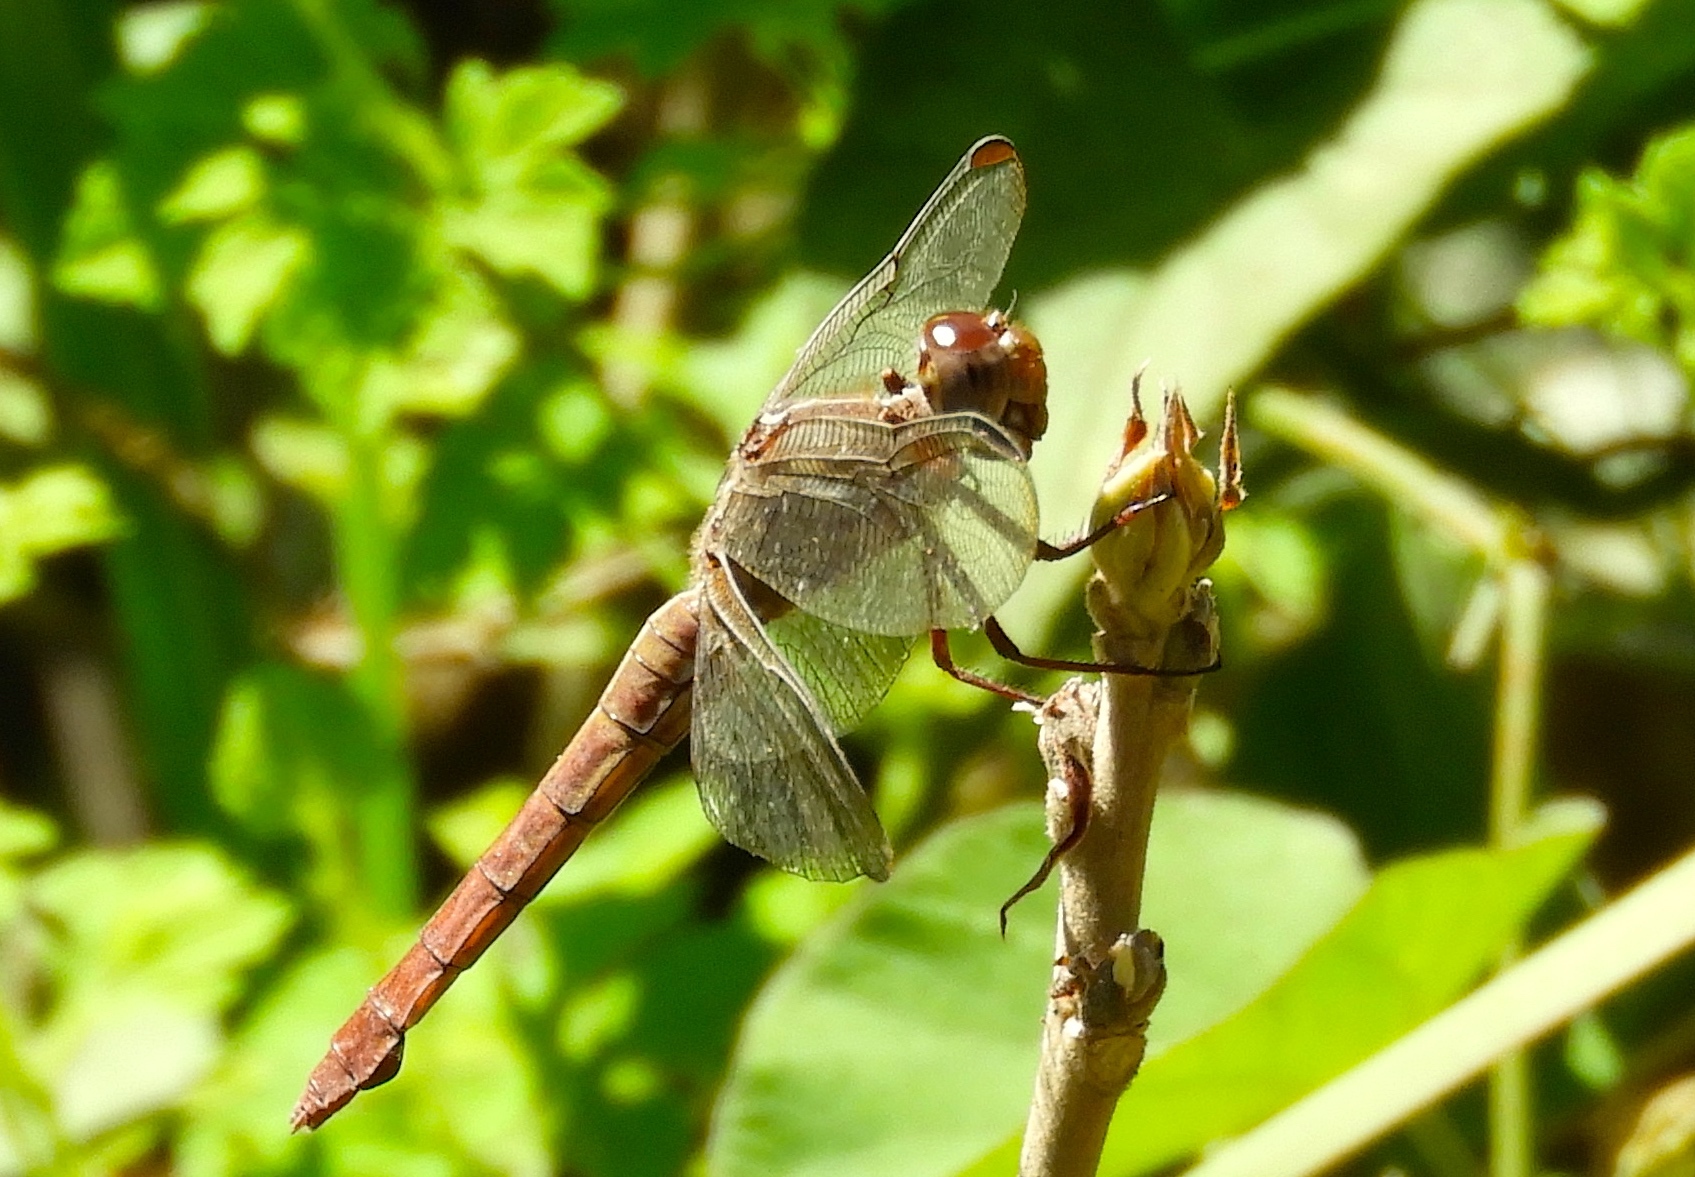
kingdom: Animalia
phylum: Arthropoda
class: Insecta
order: Odonata
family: Libellulidae
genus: Orthemis
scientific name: Orthemis discolor
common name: Carmine skimmer
